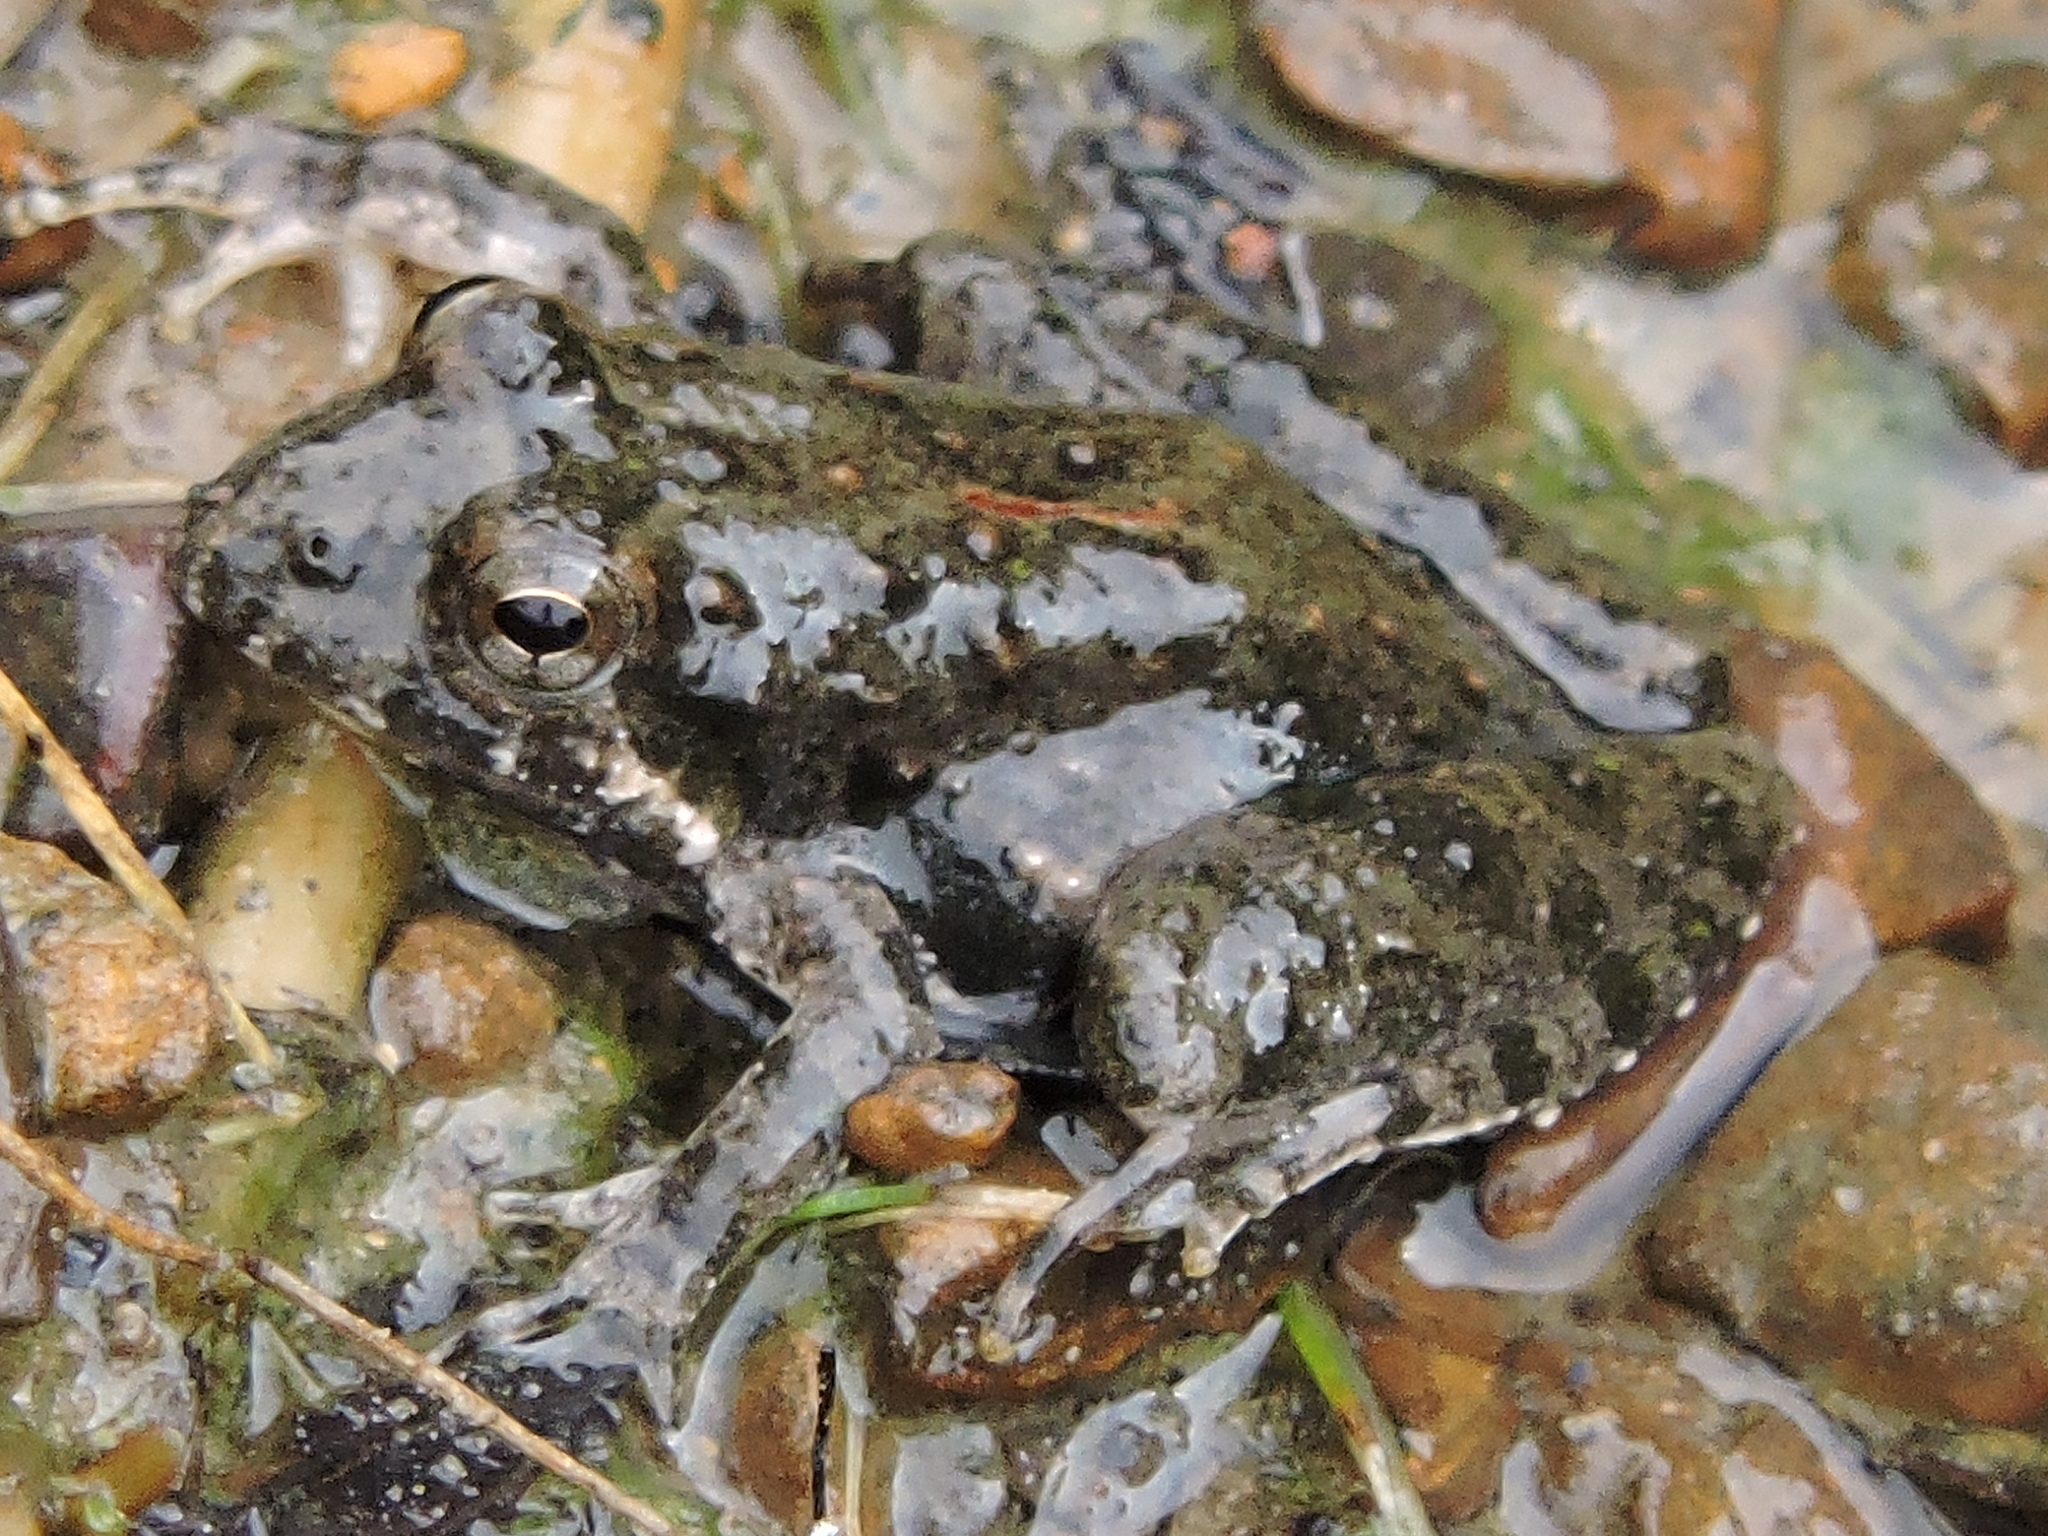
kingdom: Animalia
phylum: Chordata
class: Amphibia
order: Anura
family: Hylidae
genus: Acris
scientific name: Acris blanchardi
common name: Blanchard's cricket frog
